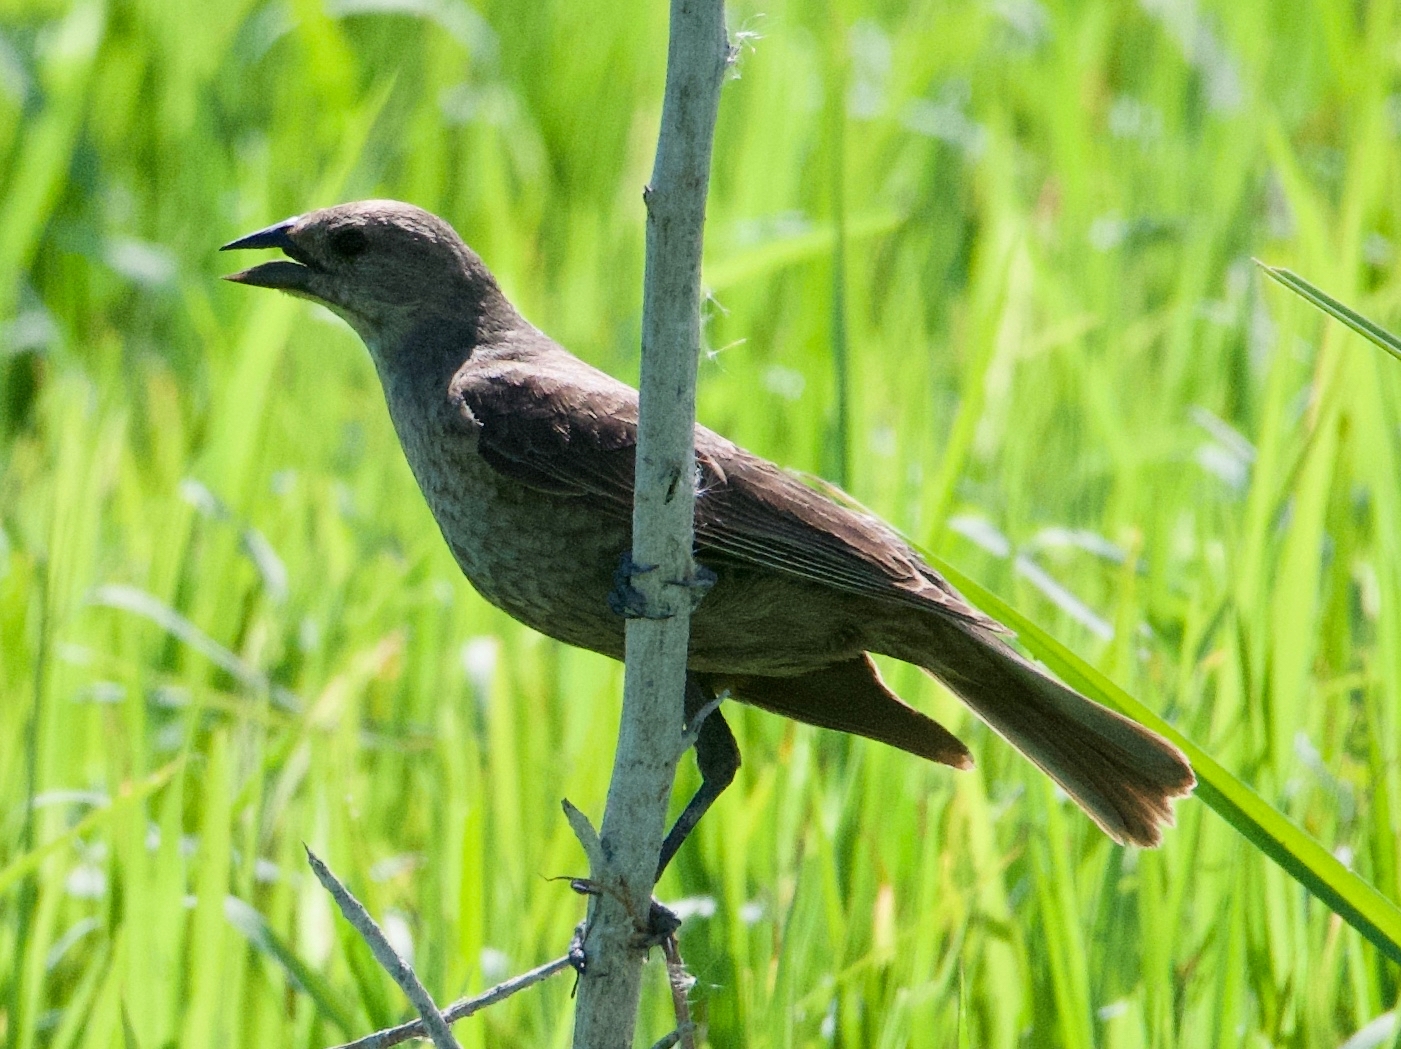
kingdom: Animalia
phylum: Chordata
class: Aves
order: Passeriformes
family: Icteridae
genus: Molothrus
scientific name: Molothrus ater
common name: Brown-headed cowbird
